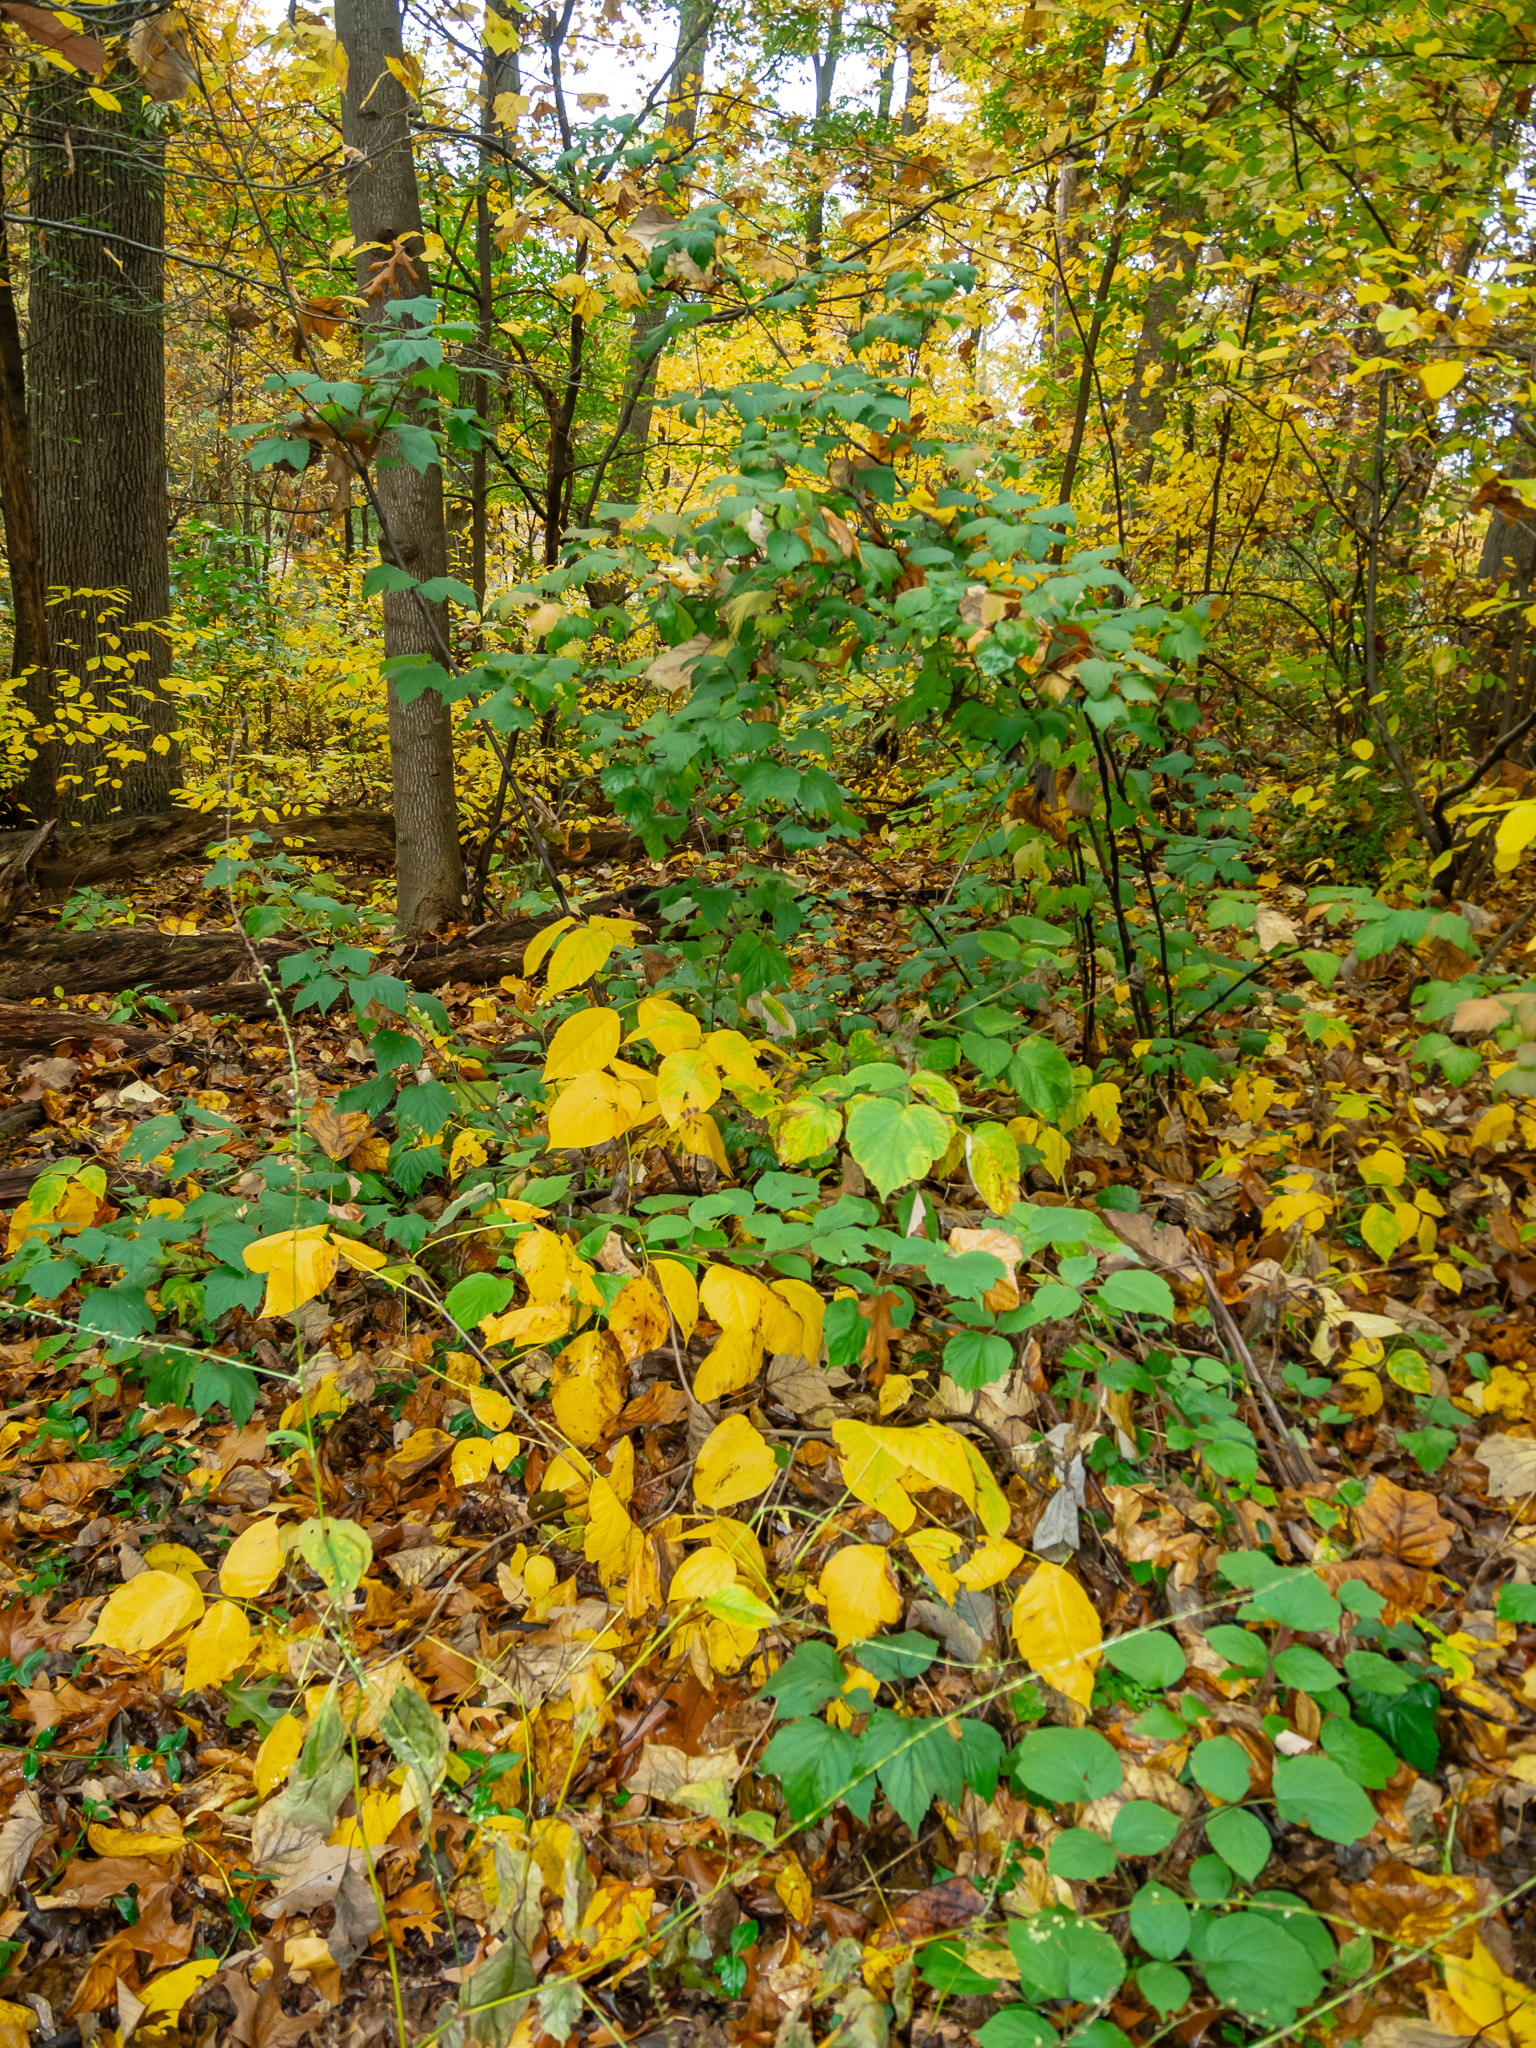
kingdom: Plantae
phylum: Tracheophyta
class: Magnoliopsida
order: Dipsacales
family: Viburnaceae
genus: Viburnum
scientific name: Viburnum acerifolium
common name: Dockmackie
